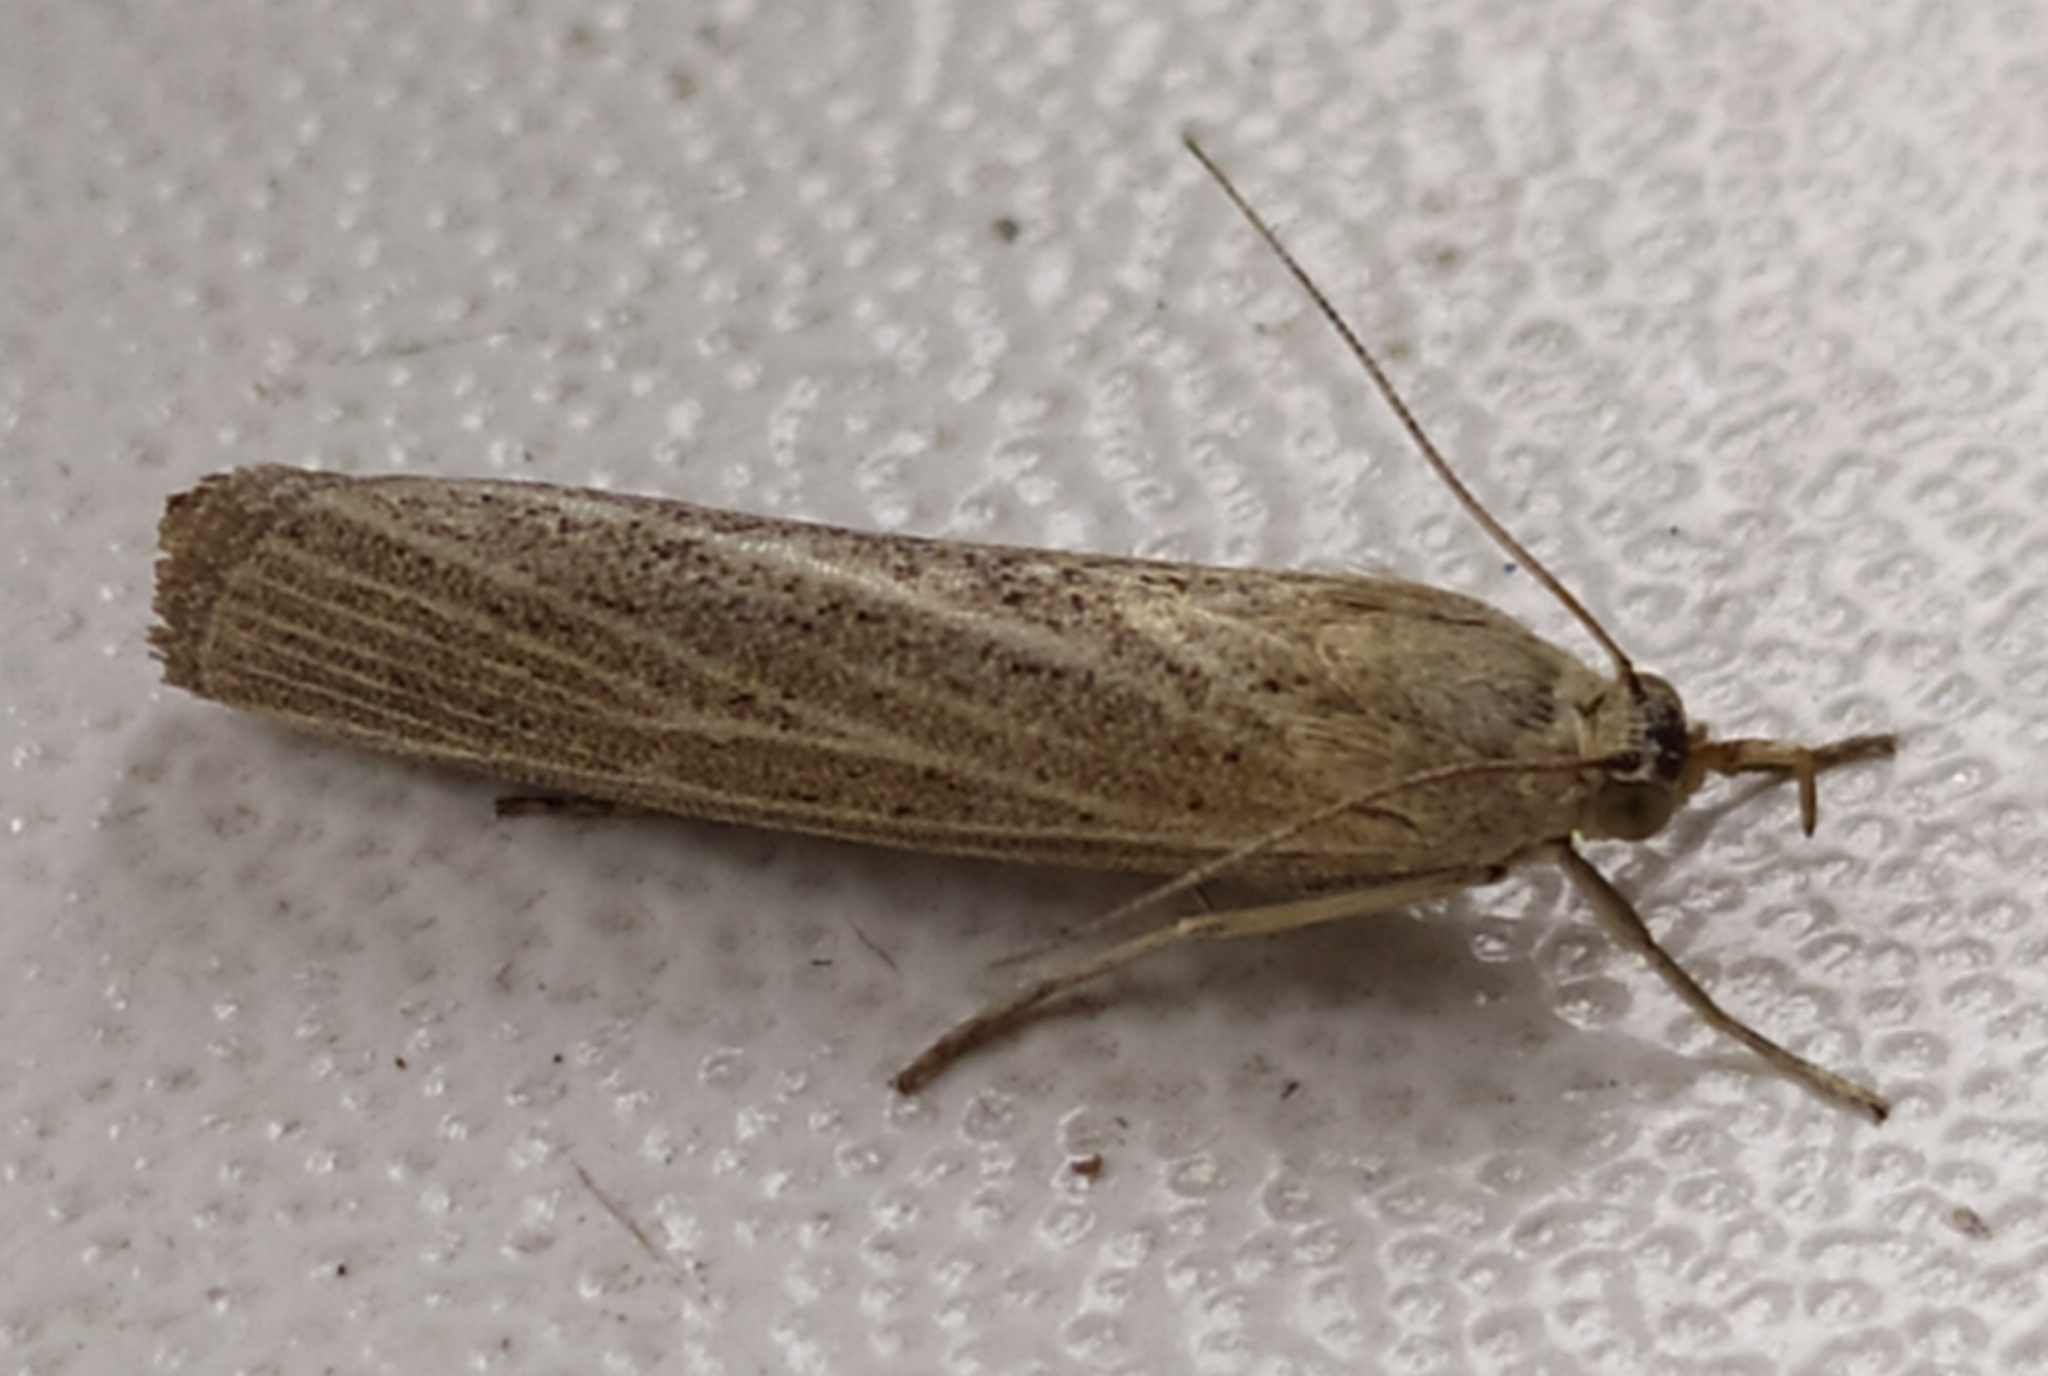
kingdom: Animalia
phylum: Arthropoda
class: Insecta
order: Lepidoptera
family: Crambidae
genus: Pediasia
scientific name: Pediasia luteella
